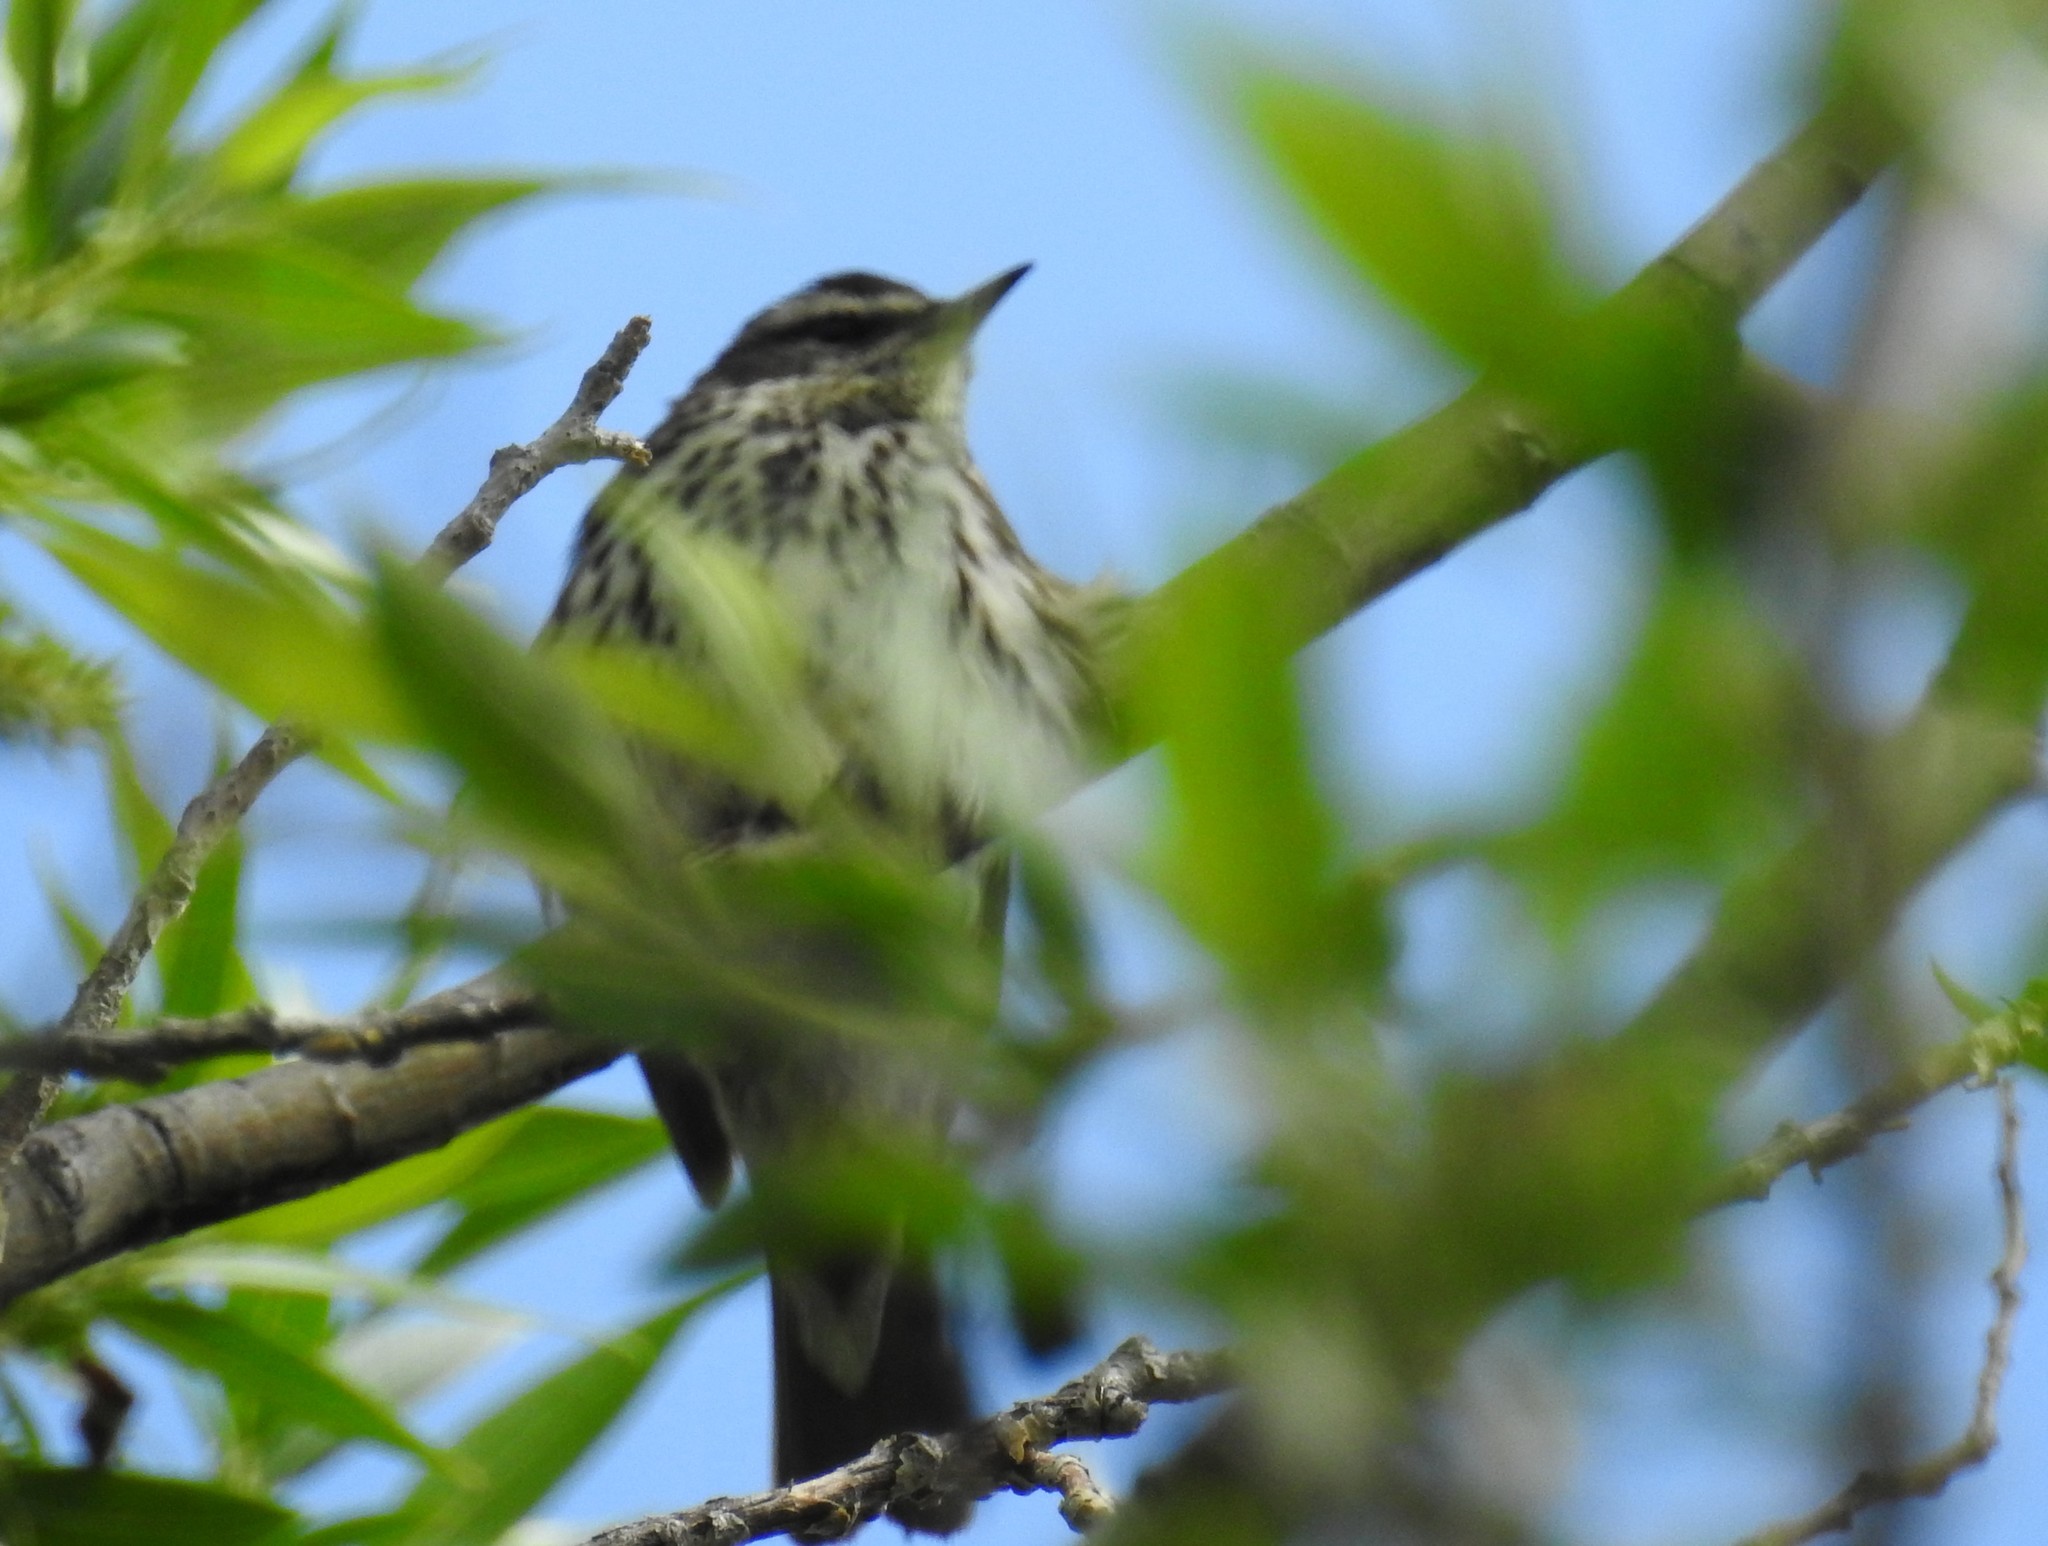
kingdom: Animalia
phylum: Chordata
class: Aves
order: Passeriformes
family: Parulidae
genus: Parkesia
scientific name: Parkesia noveboracensis
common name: Northern waterthrush
